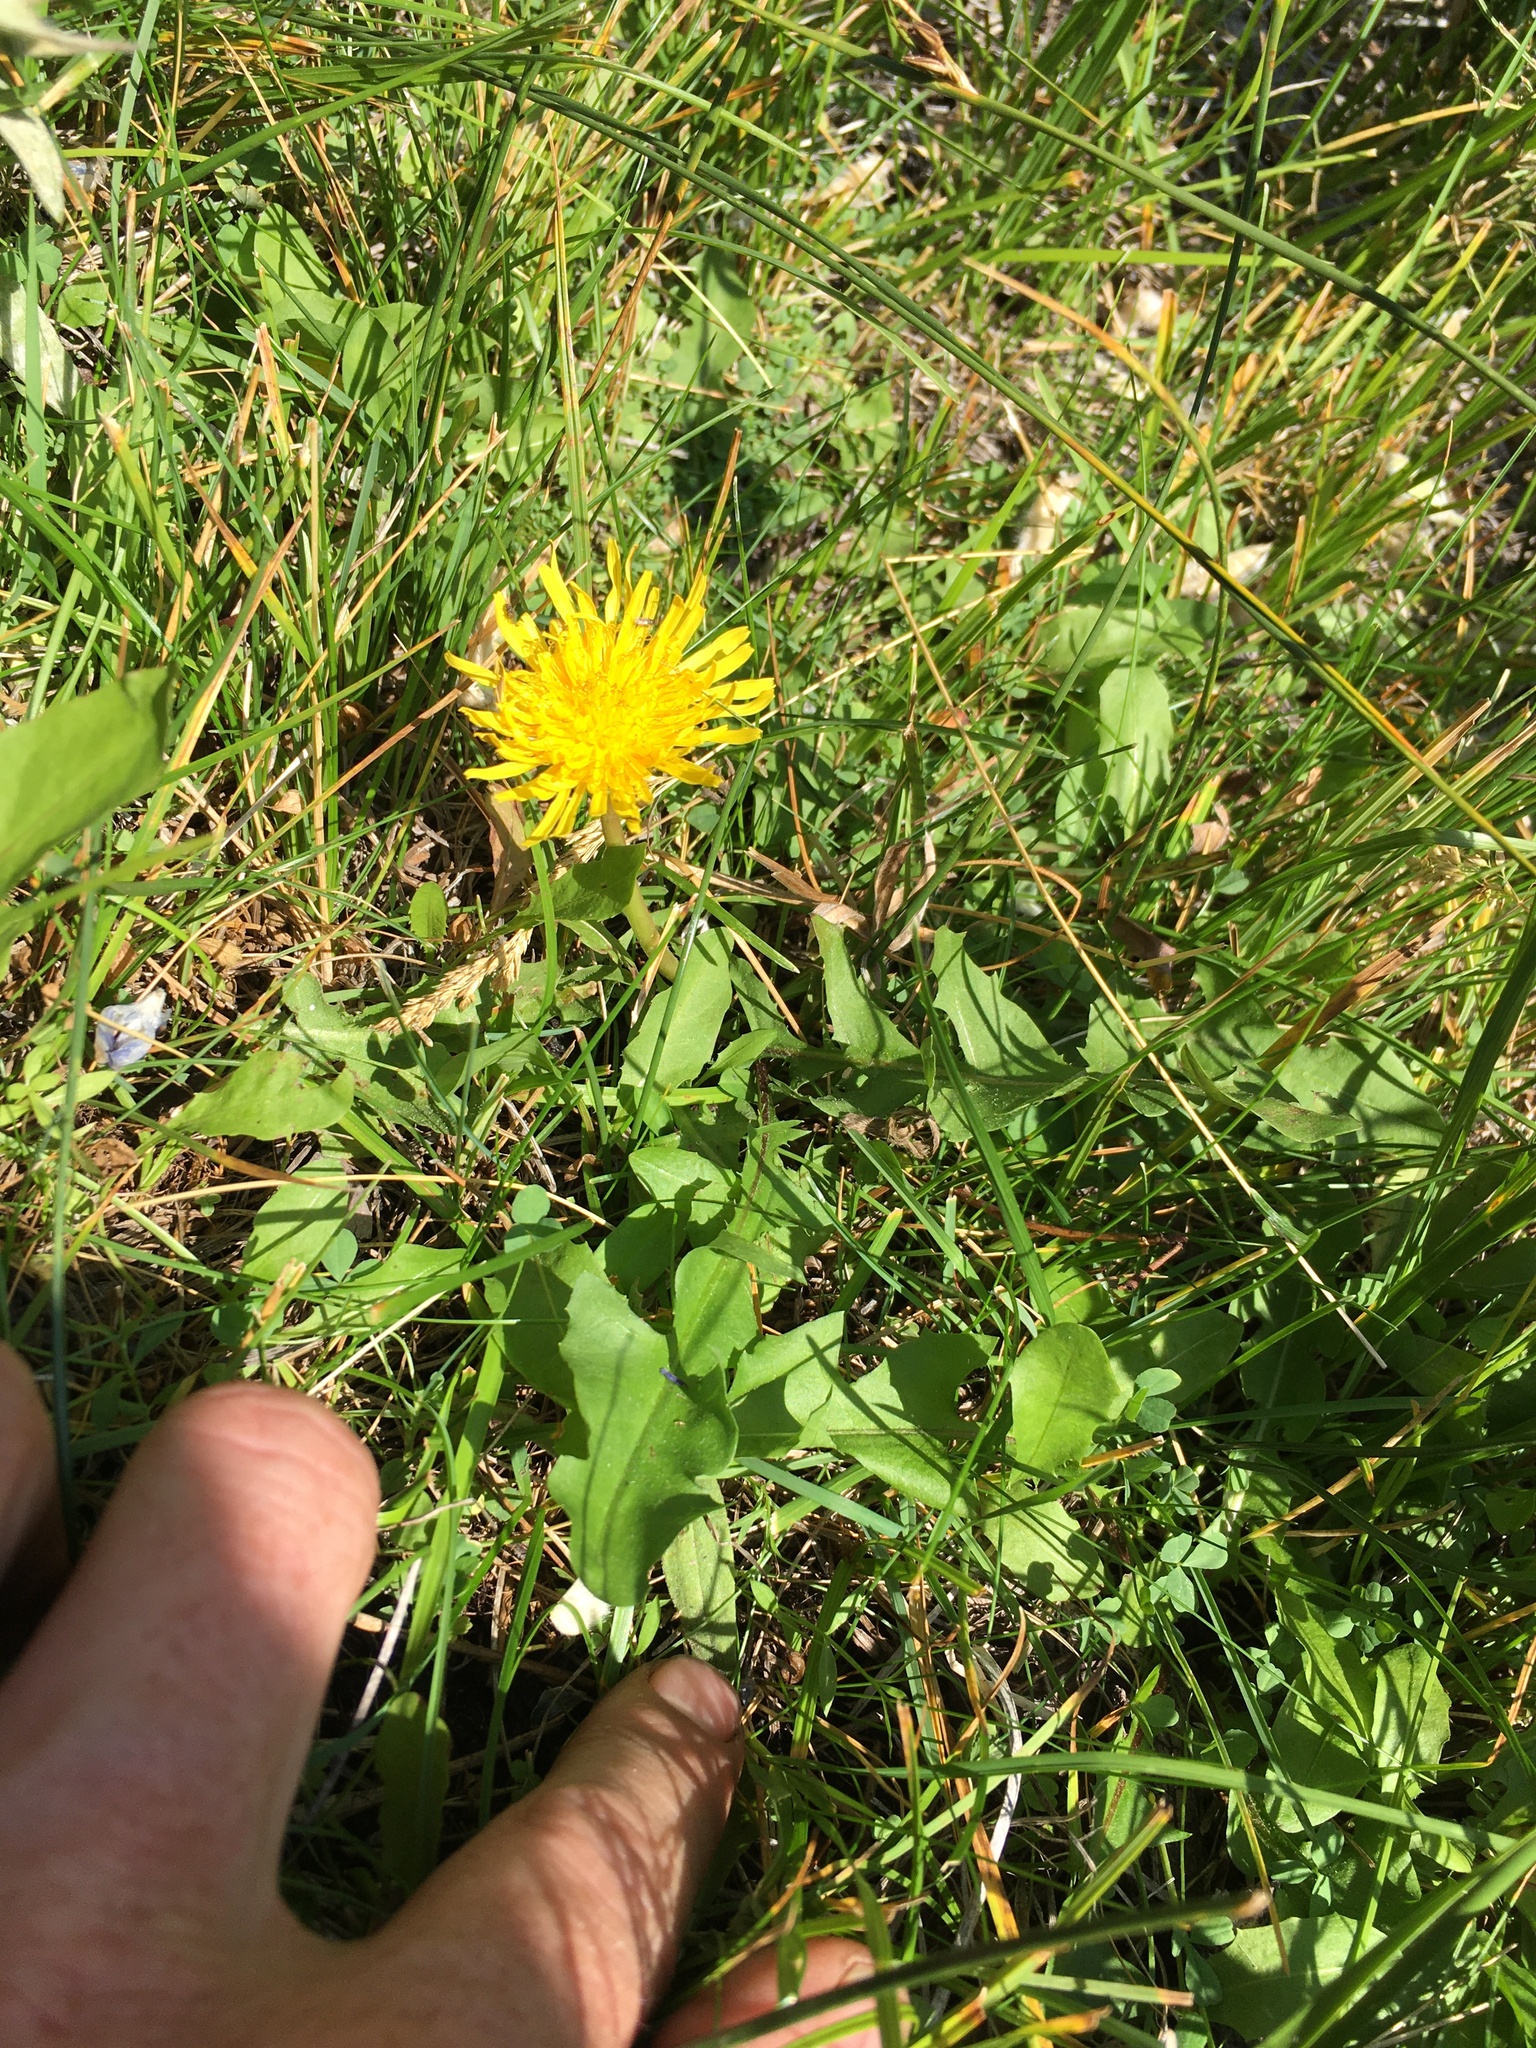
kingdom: Plantae
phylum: Tracheophyta
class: Magnoliopsida
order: Asterales
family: Asteraceae
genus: Taraxacum
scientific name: Taraxacum officinale
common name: Common dandelion
